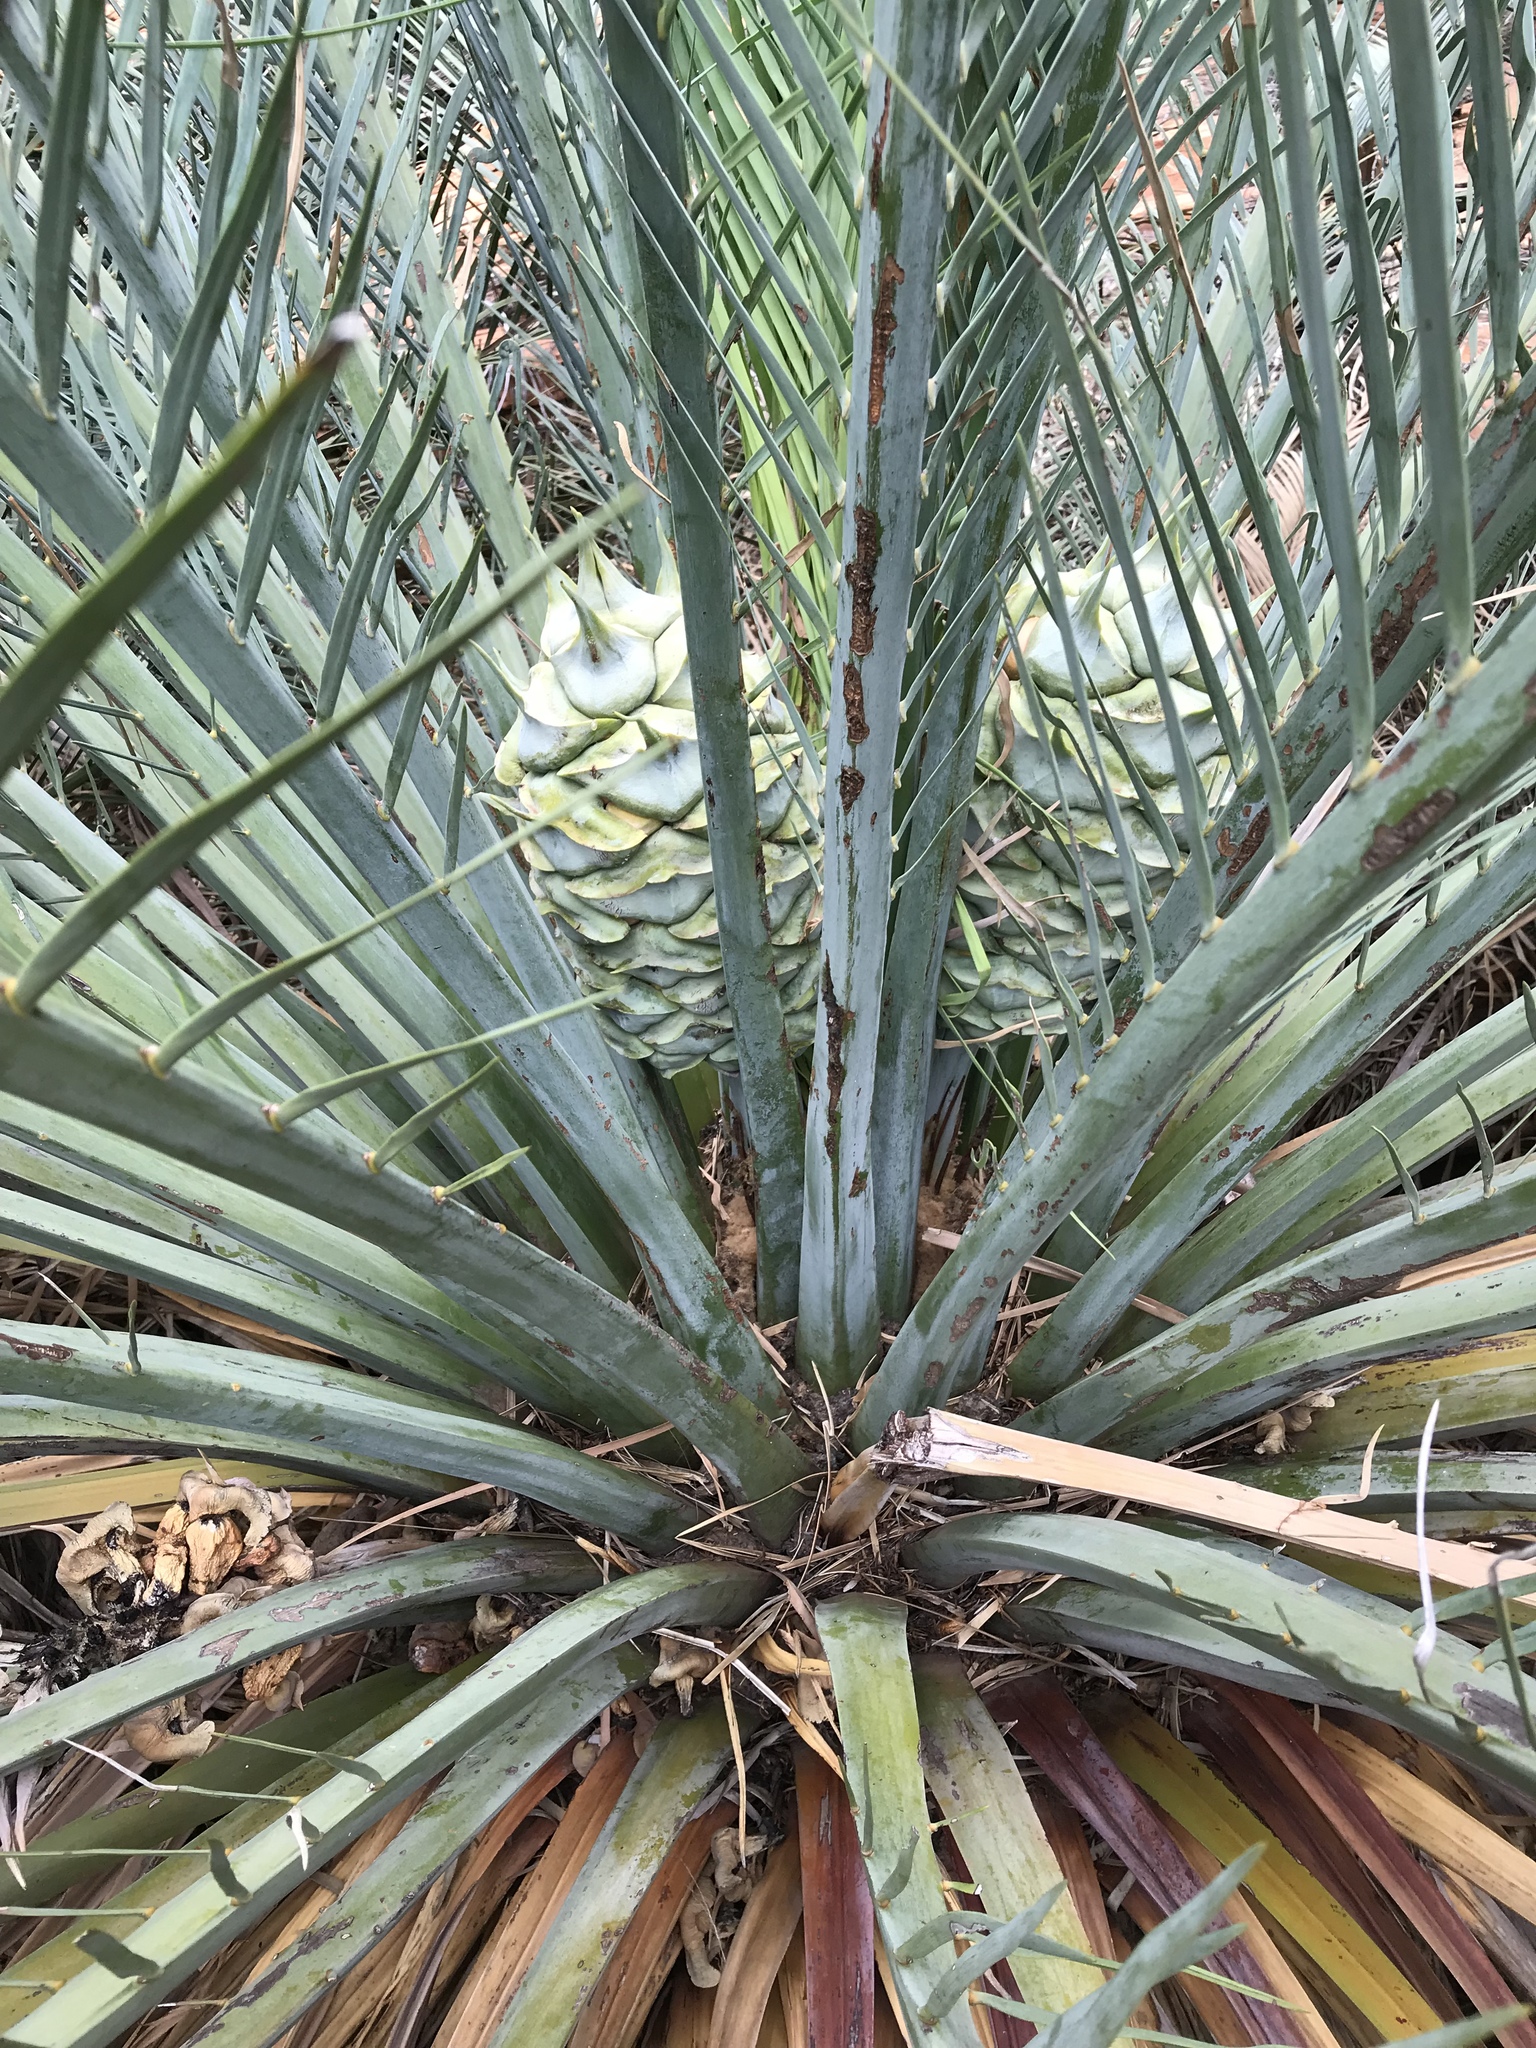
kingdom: Plantae
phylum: Tracheophyta
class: Cycadopsida
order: Cycadales
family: Zamiaceae
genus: Macrozamia
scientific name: Macrozamia macdonnellii
